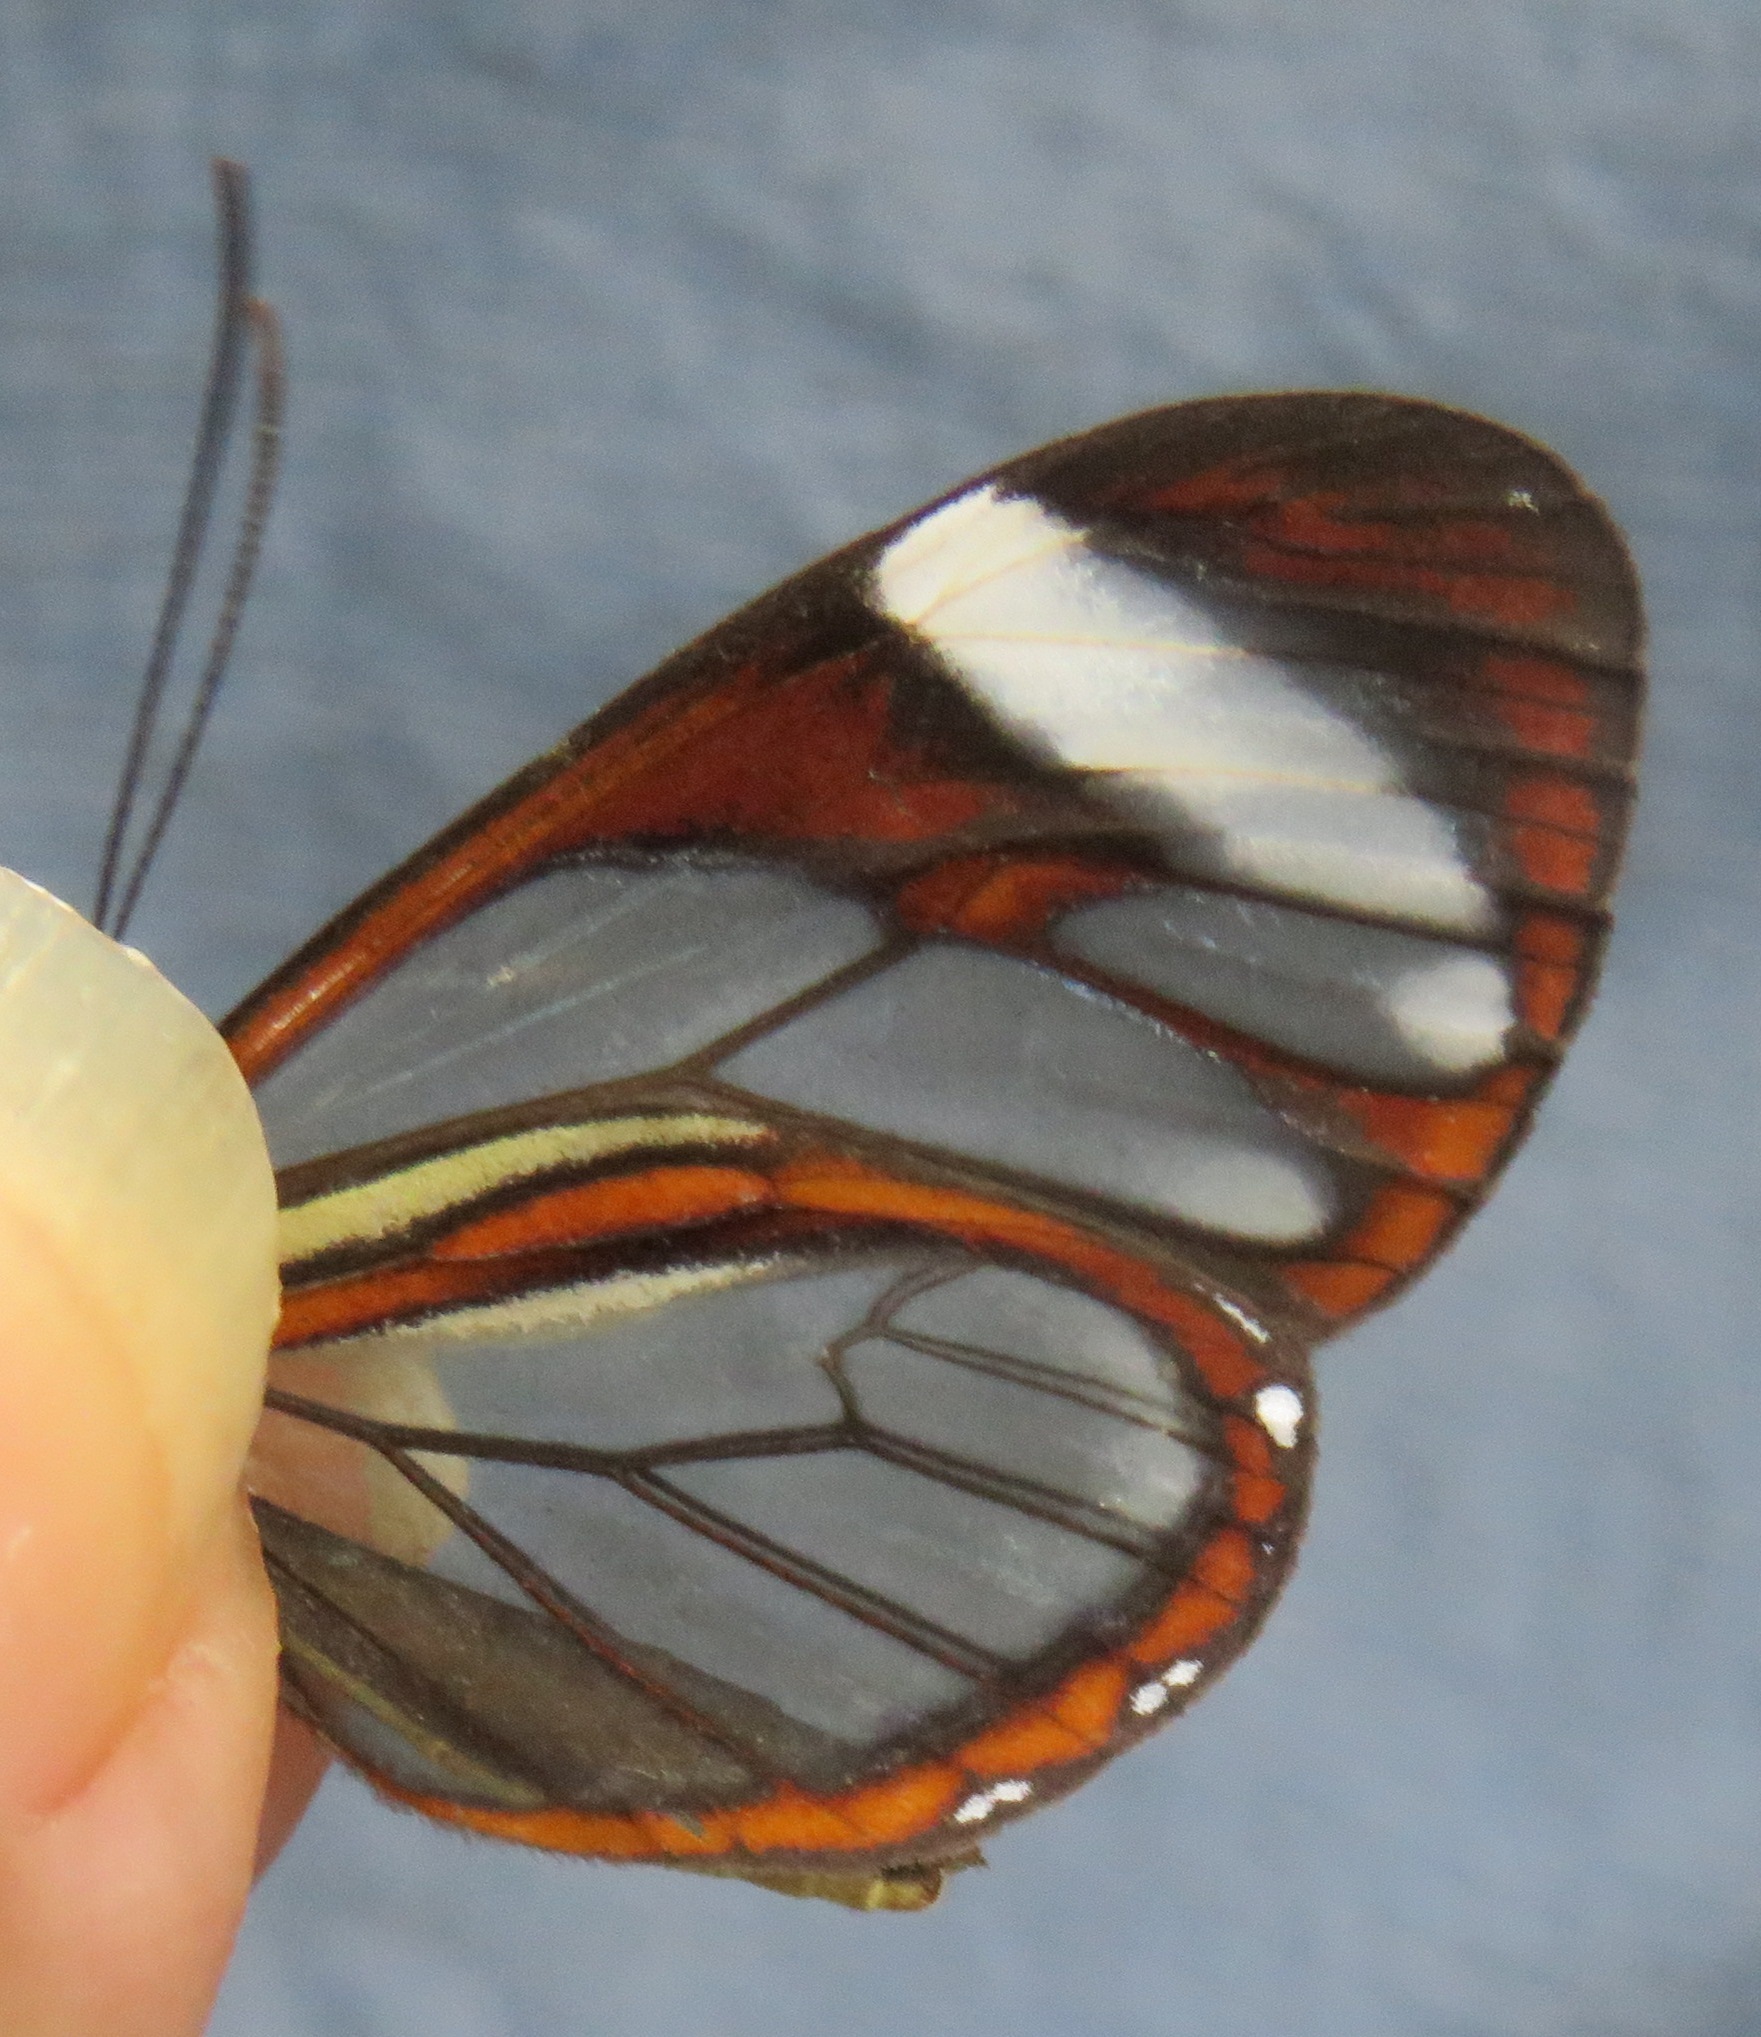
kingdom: Animalia
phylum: Arthropoda
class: Insecta
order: Lepidoptera
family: Nymphalidae
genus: Ithomia
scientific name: Ithomia patilla
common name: Patilla clearwing
